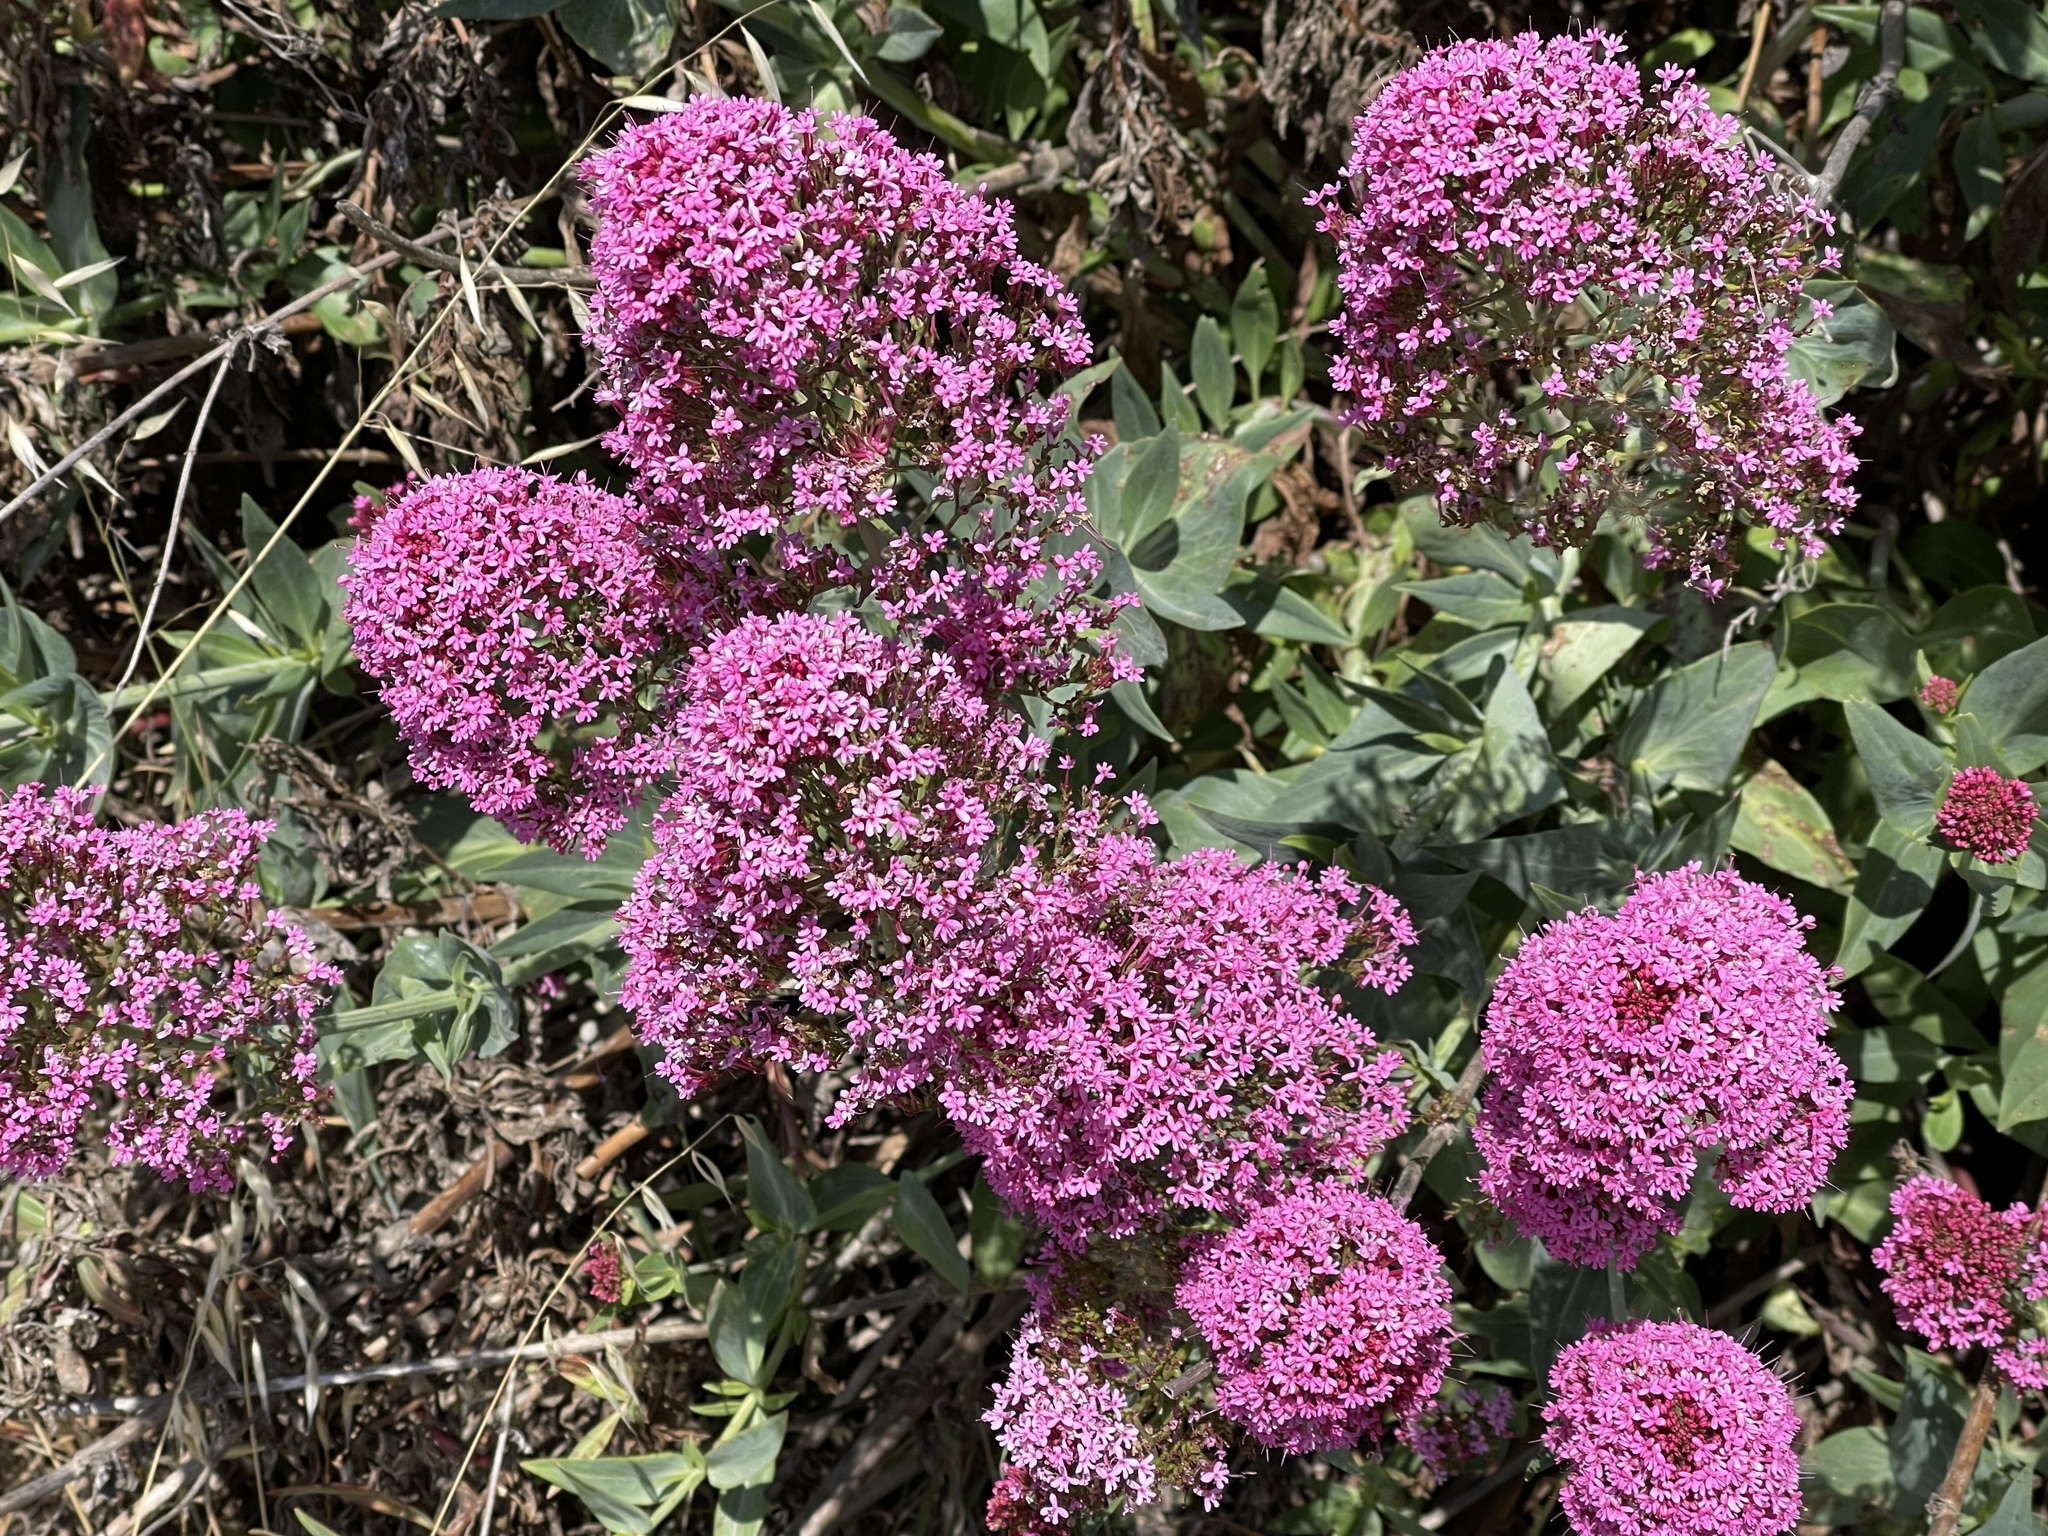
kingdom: Plantae
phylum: Tracheophyta
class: Magnoliopsida
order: Dipsacales
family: Caprifoliaceae
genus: Centranthus
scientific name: Centranthus ruber
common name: Red valerian
